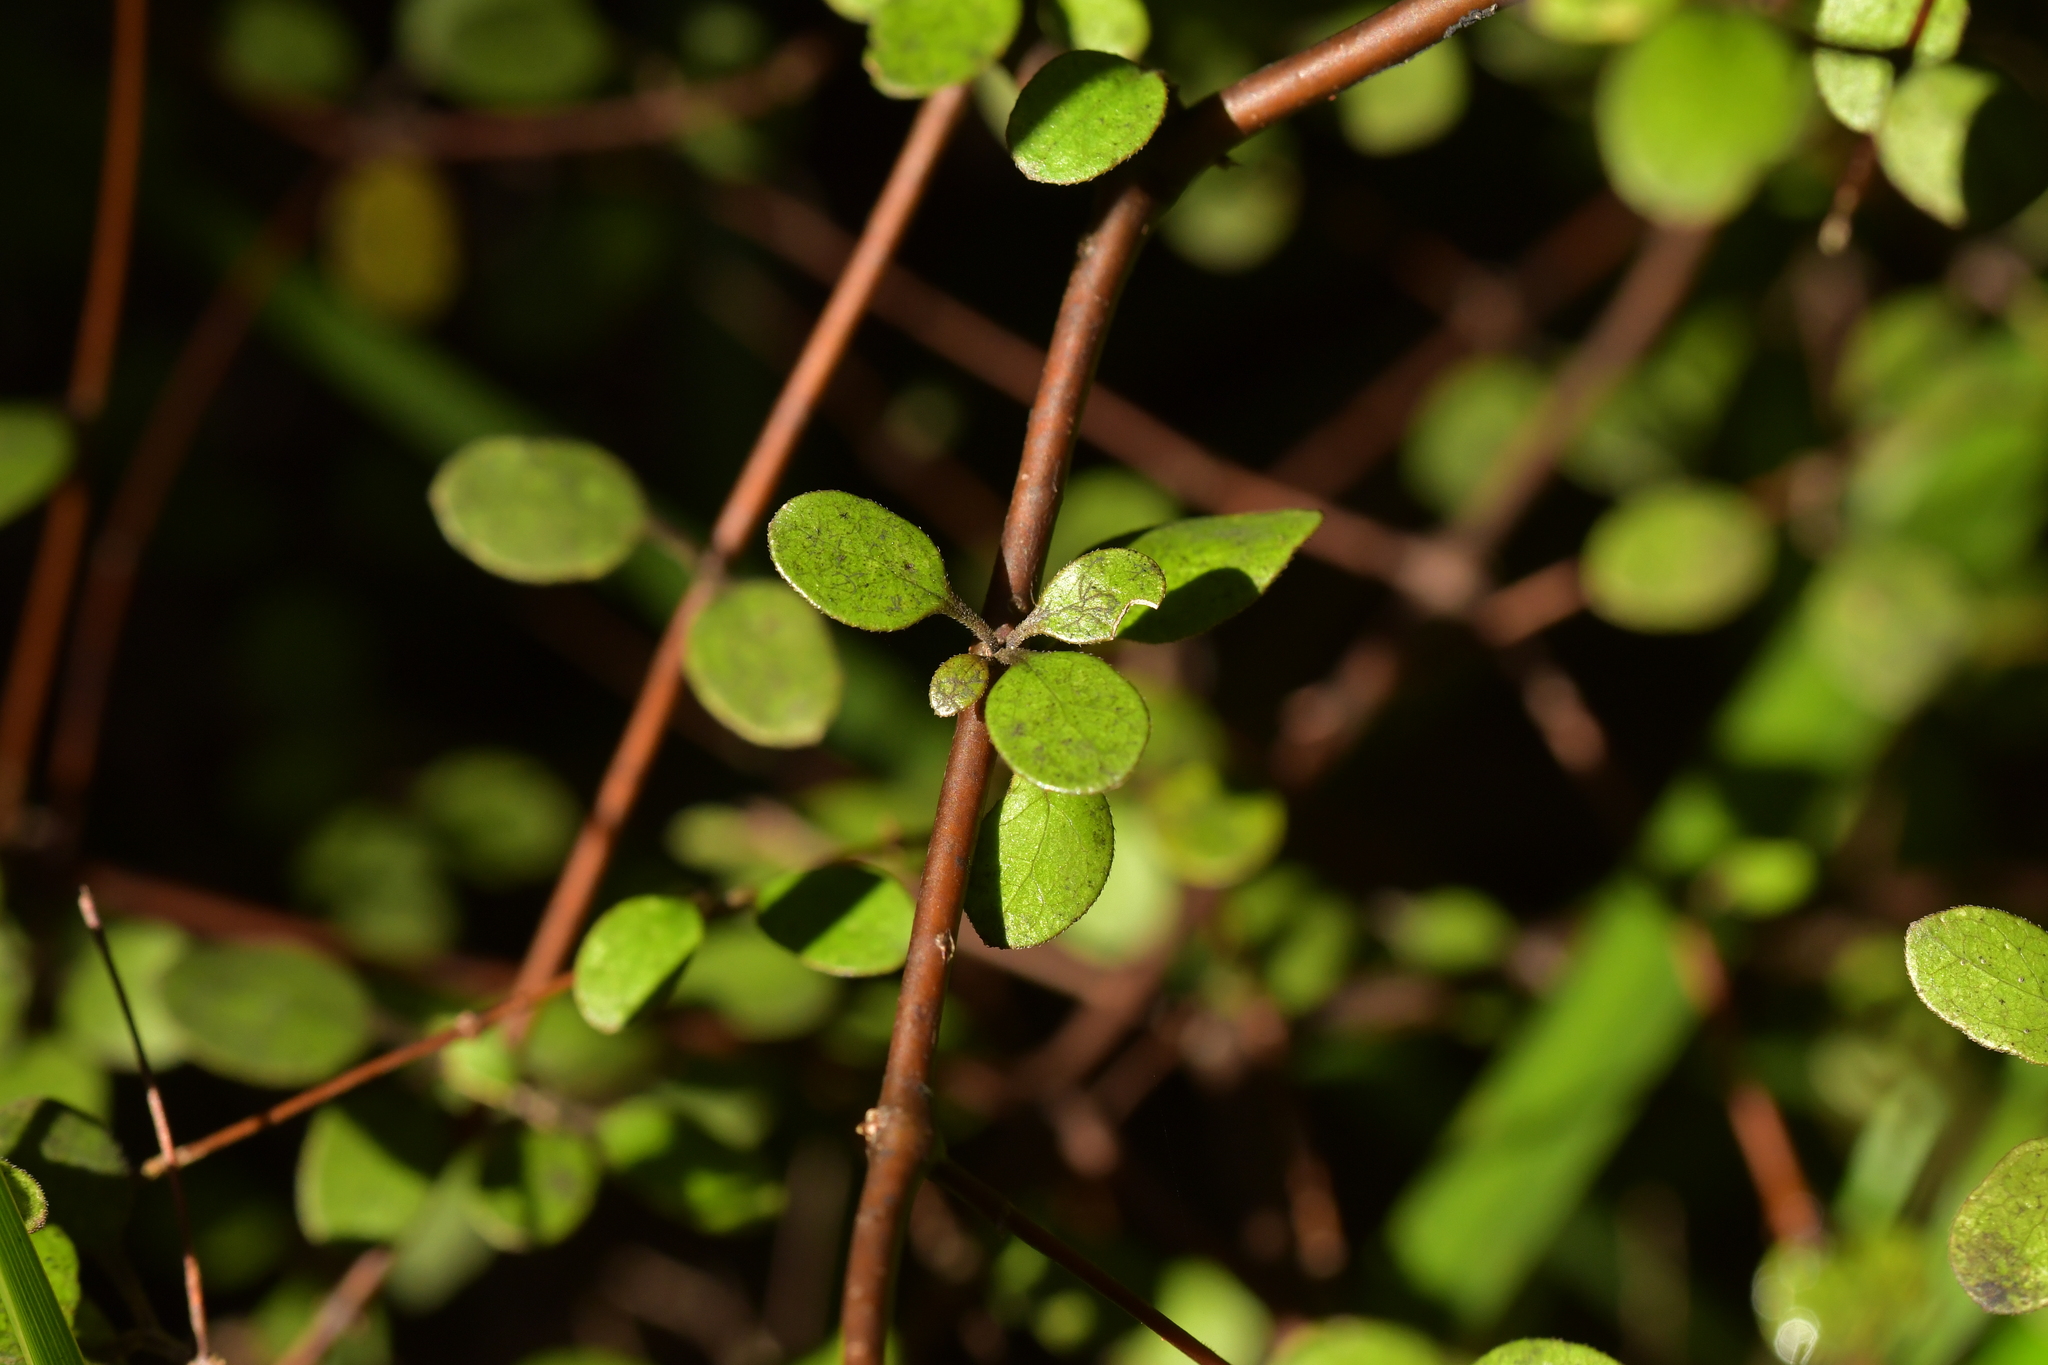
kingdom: Plantae
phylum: Tracheophyta
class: Magnoliopsida
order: Gentianales
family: Rubiaceae
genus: Coprosma
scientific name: Coprosma crassifolia
